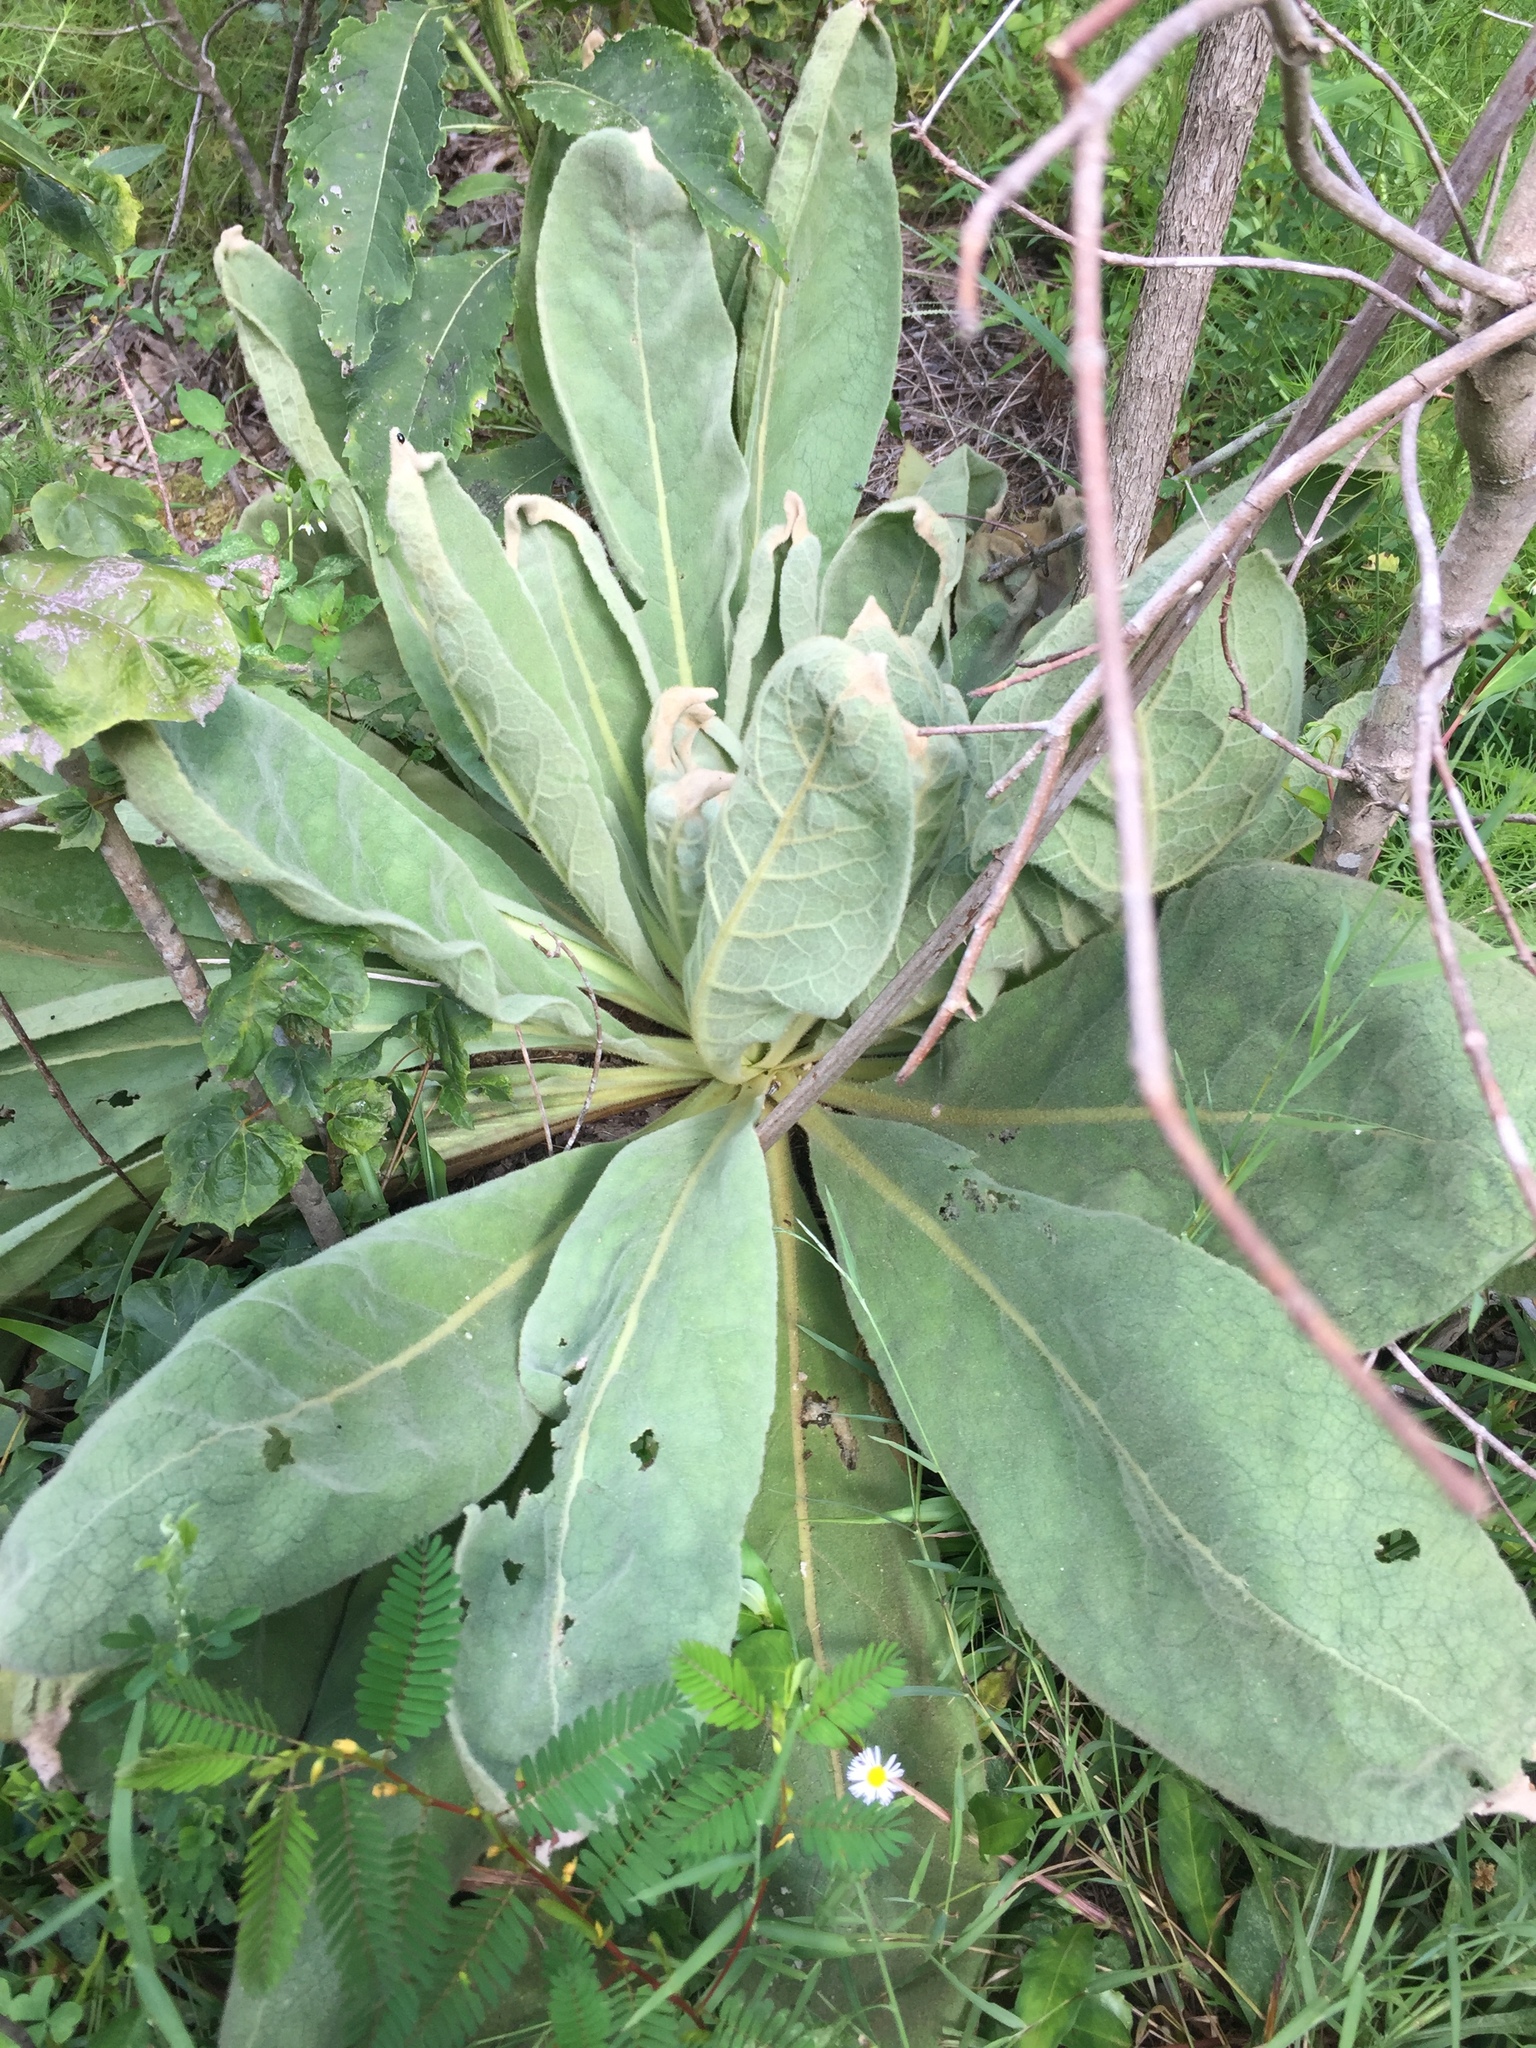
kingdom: Plantae
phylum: Tracheophyta
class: Magnoliopsida
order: Lamiales
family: Scrophulariaceae
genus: Verbascum
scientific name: Verbascum thapsus
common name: Common mullein
